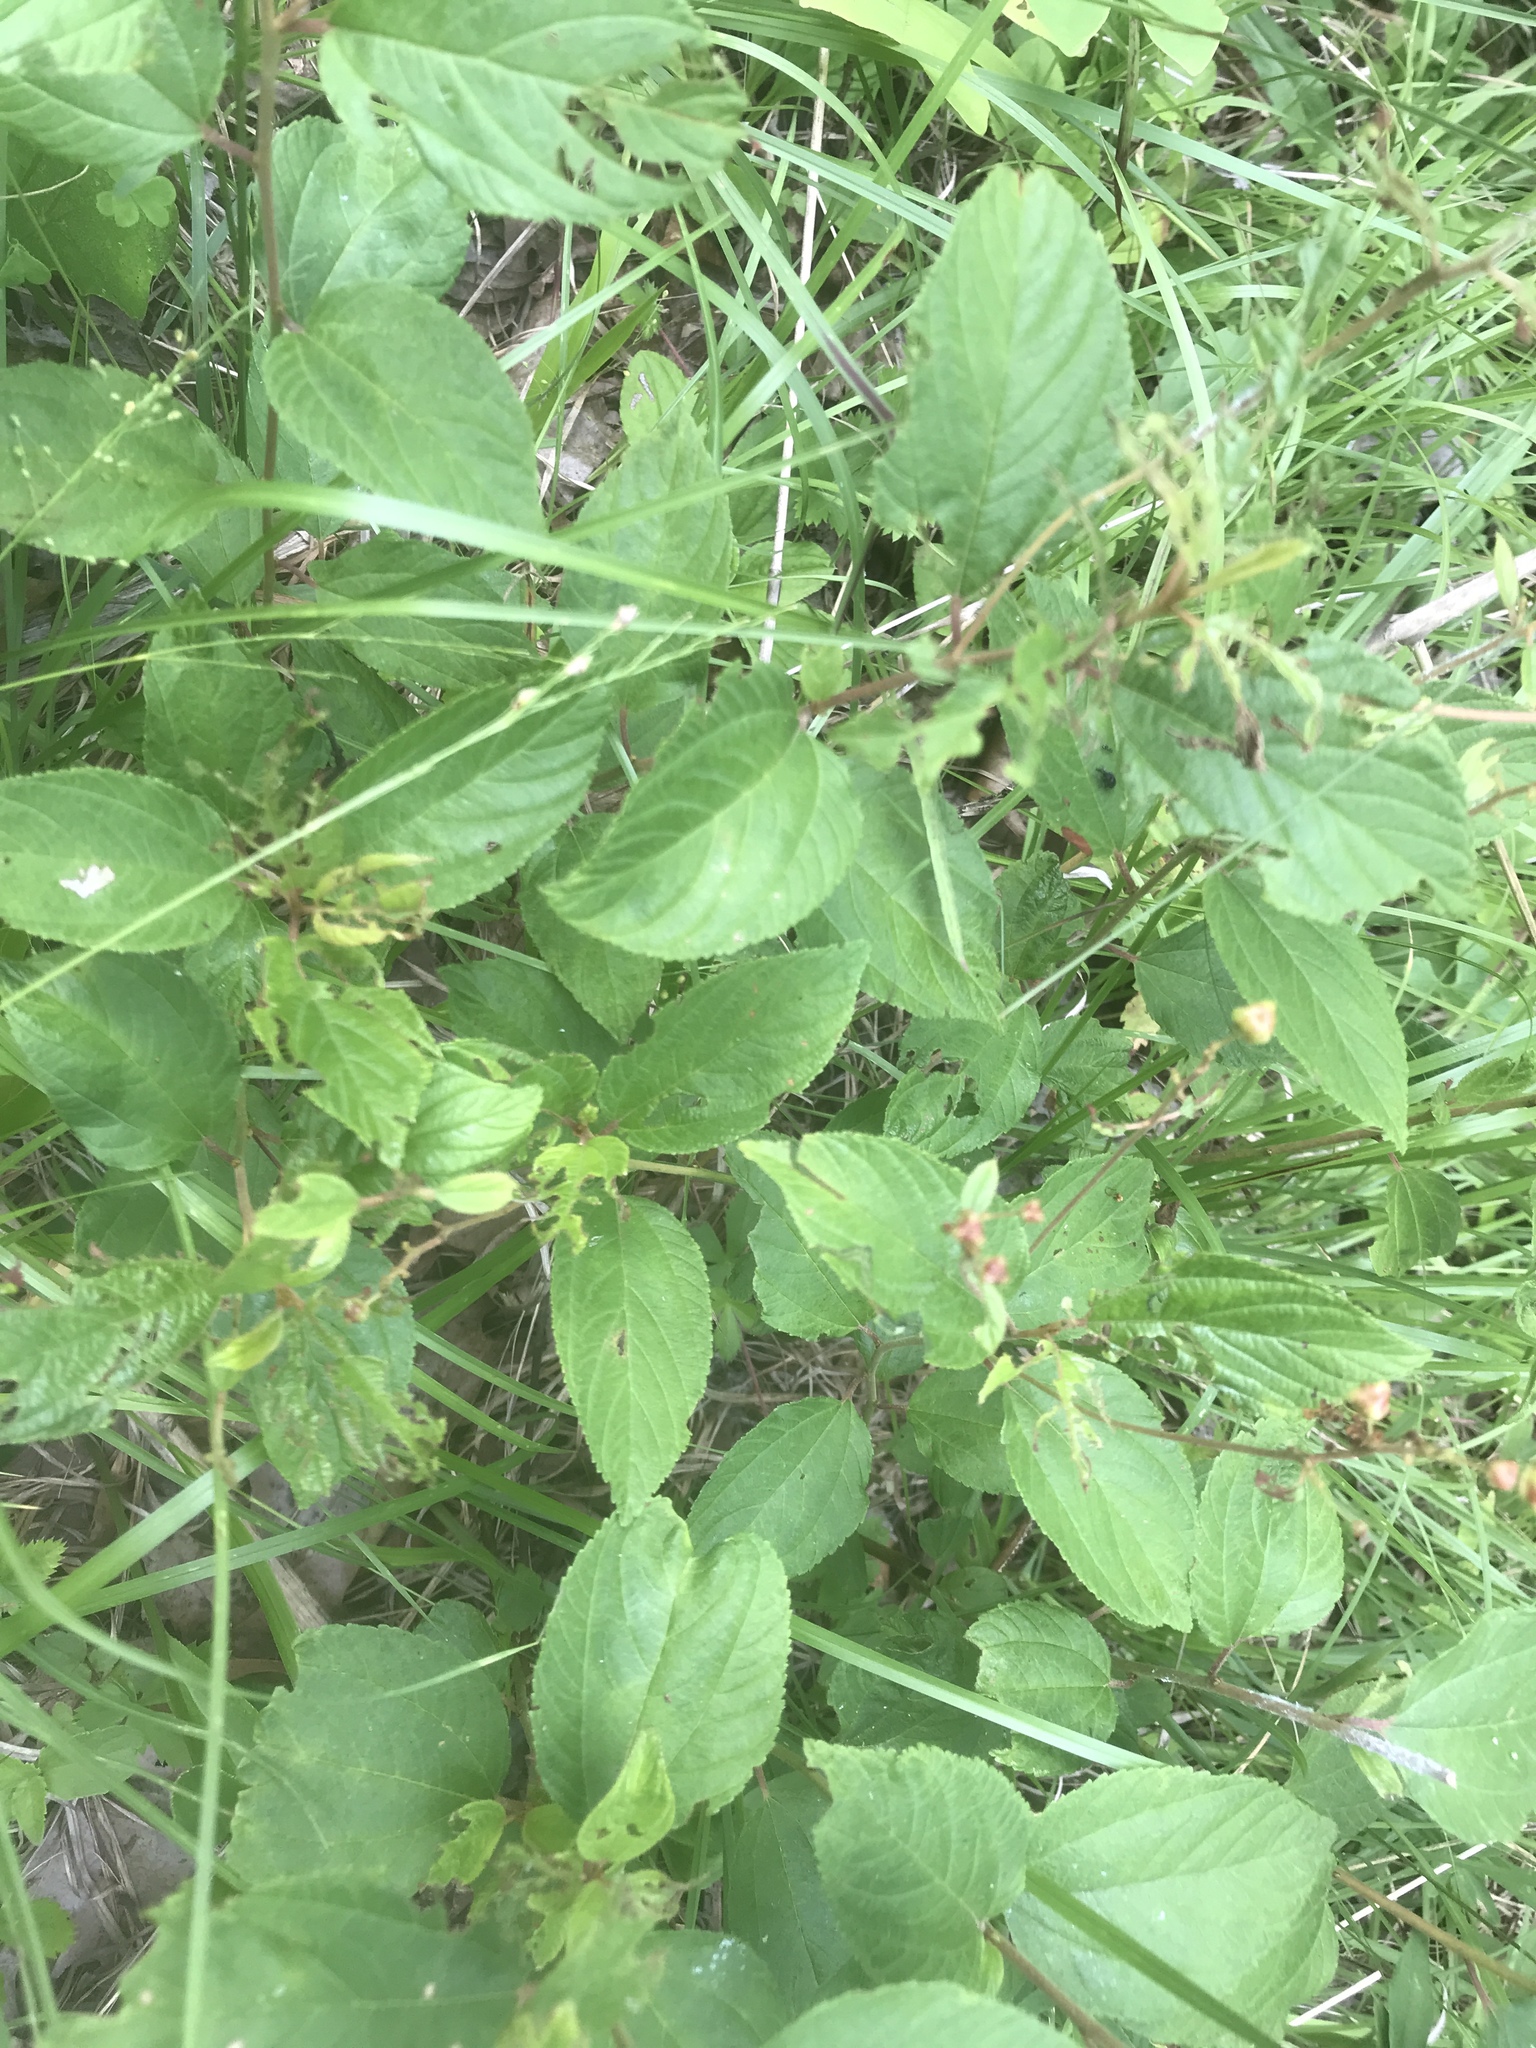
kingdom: Plantae
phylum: Tracheophyta
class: Magnoliopsida
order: Rosales
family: Rhamnaceae
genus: Ceanothus
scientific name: Ceanothus americanus
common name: Redroot
